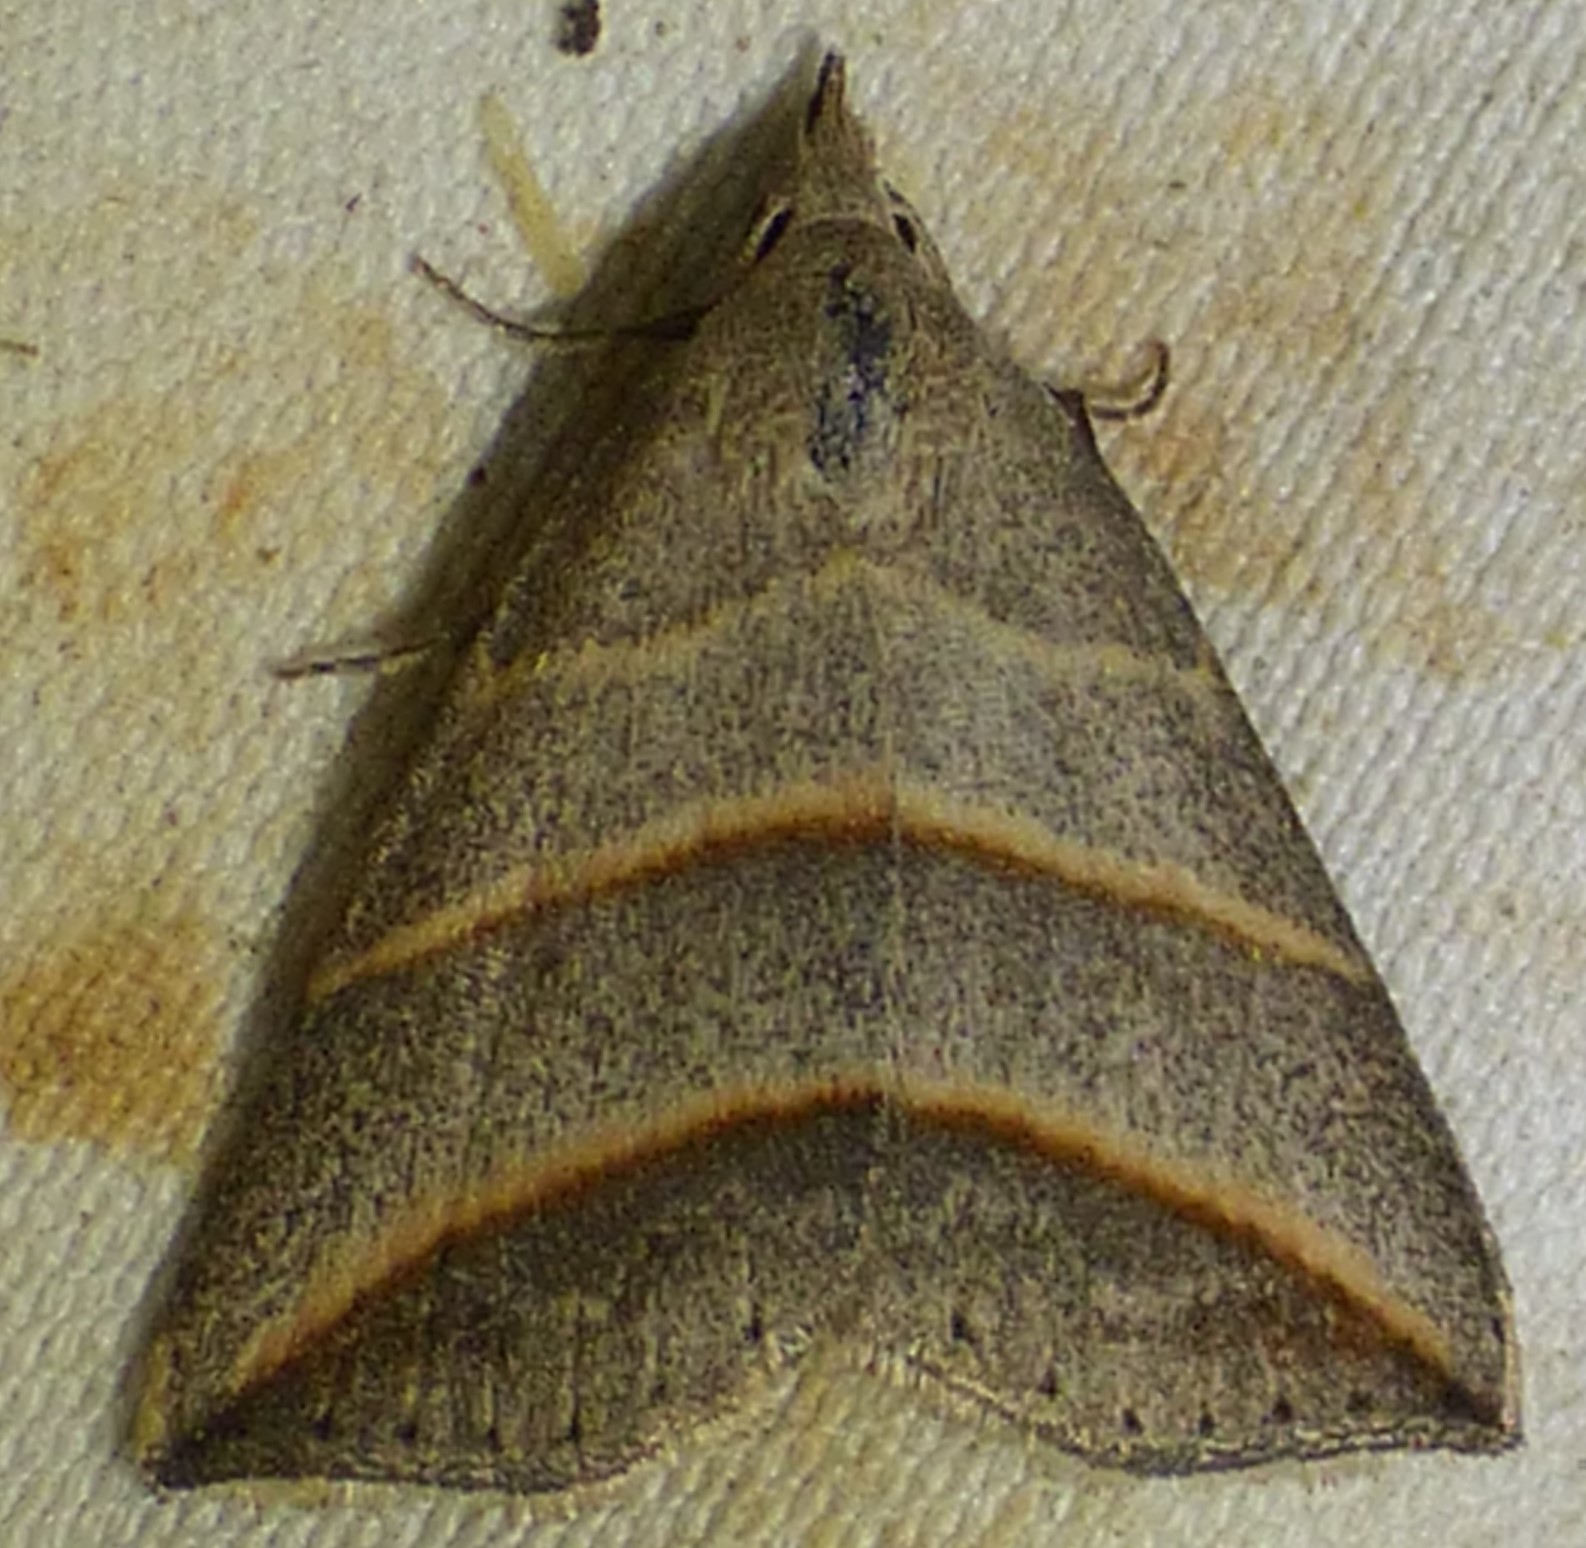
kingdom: Animalia
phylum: Arthropoda
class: Insecta
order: Lepidoptera
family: Erebidae
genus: Colobochyla
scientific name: Colobochyla interpuncta
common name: Yellow-lined owlet
